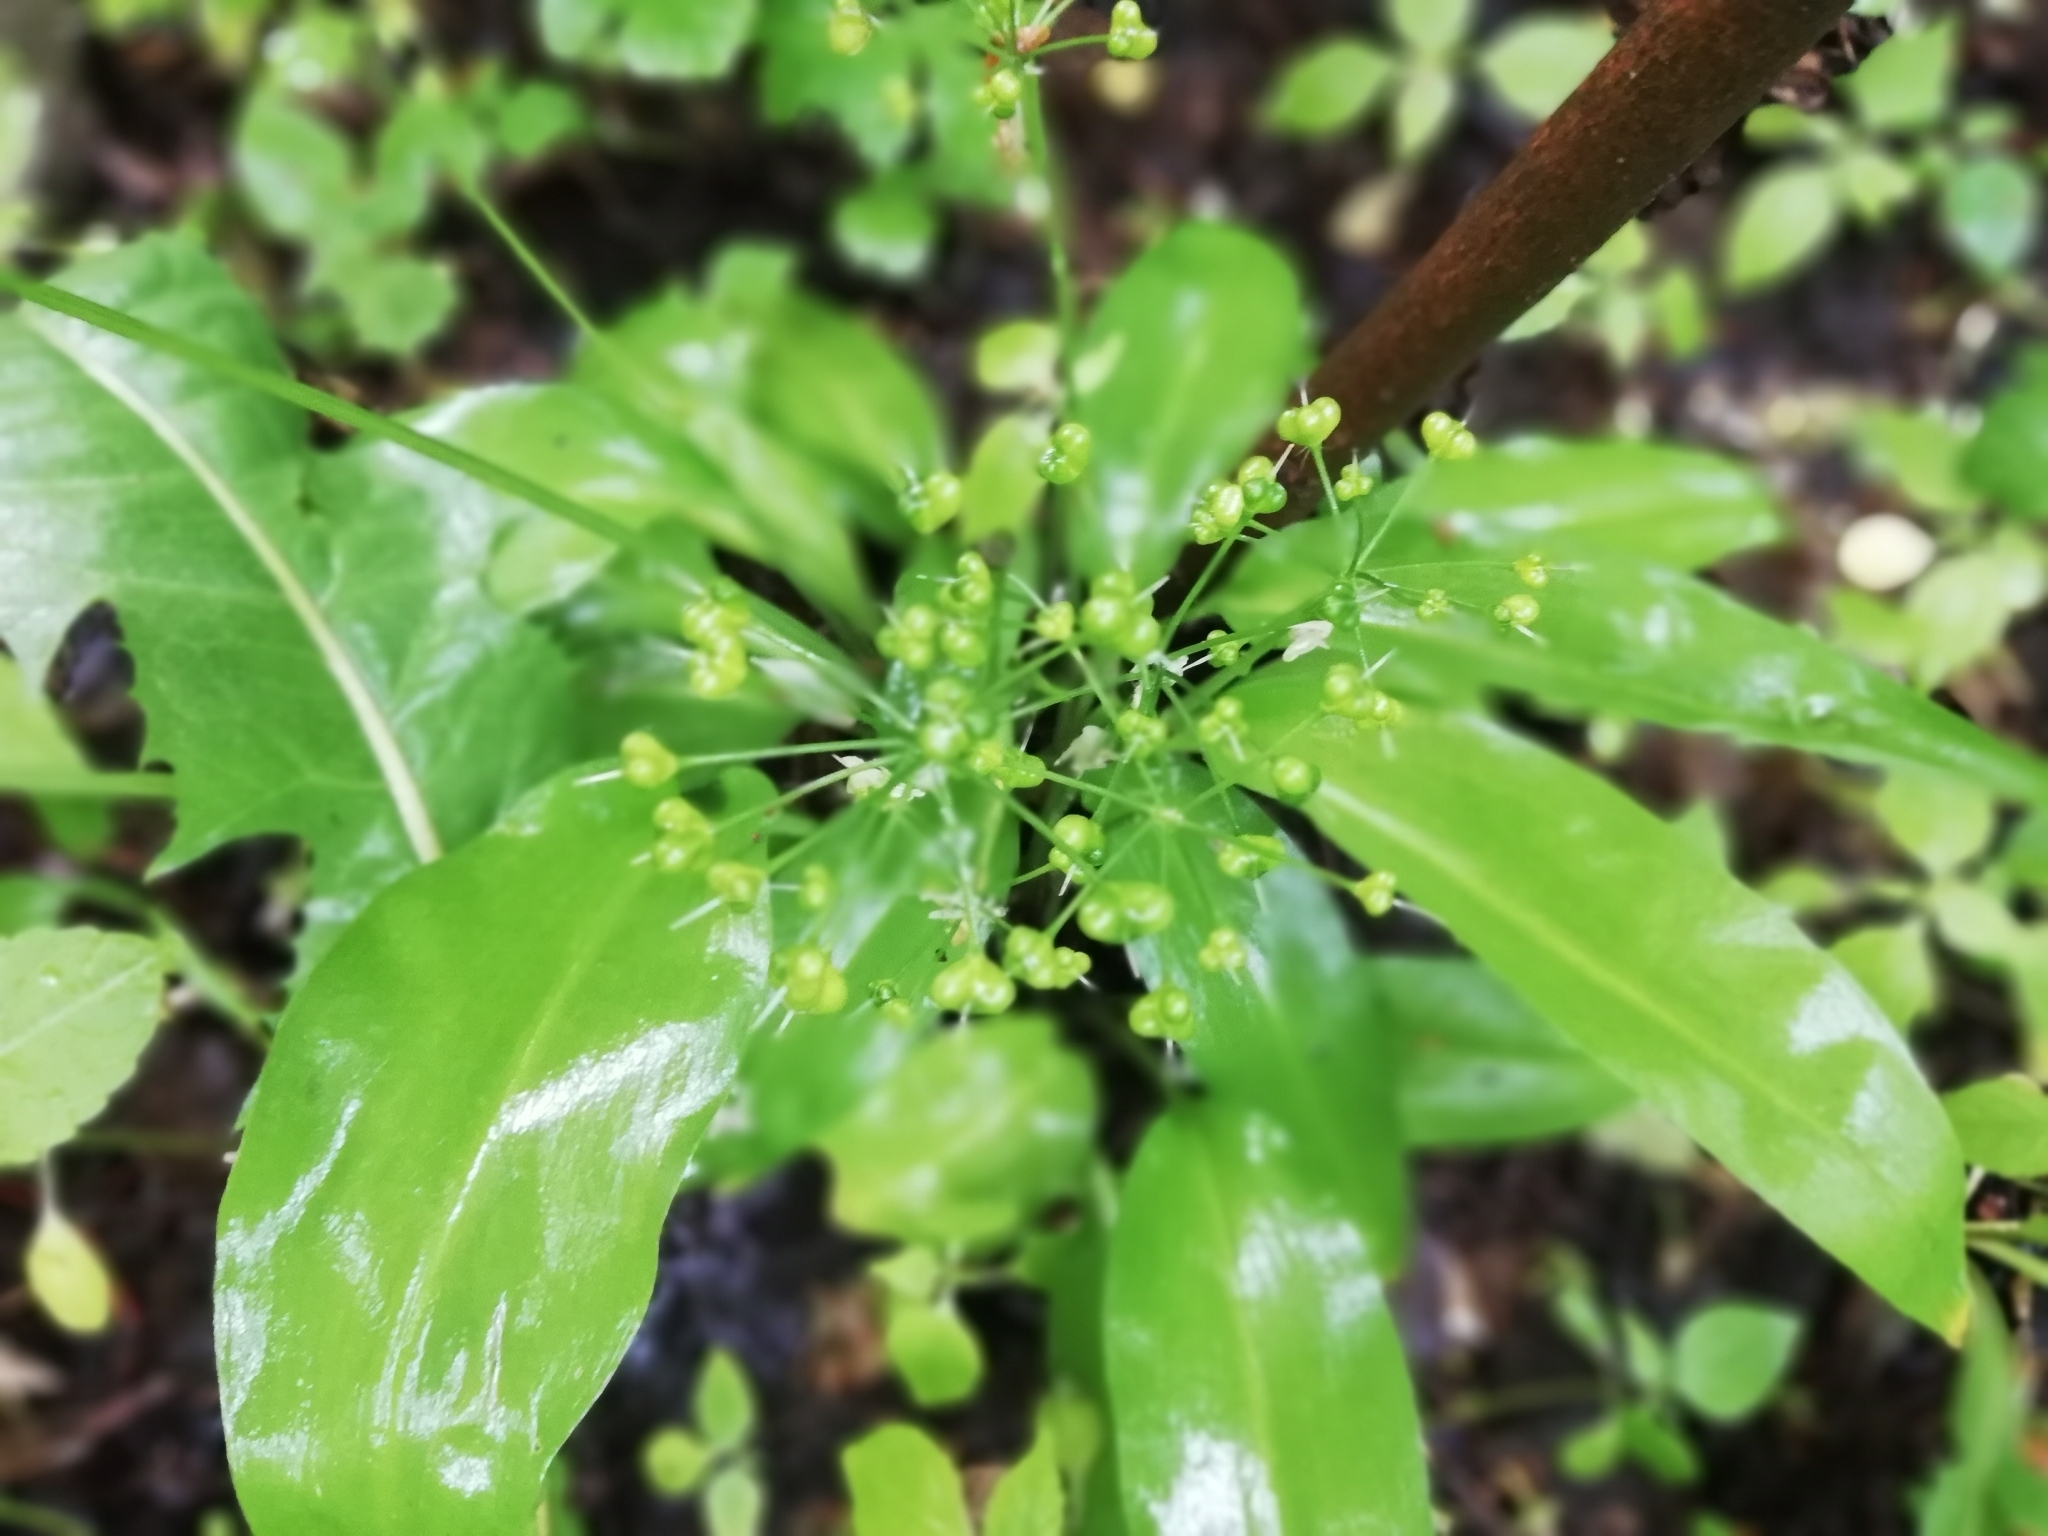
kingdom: Plantae
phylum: Tracheophyta
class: Liliopsida
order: Asparagales
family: Amaryllidaceae
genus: Allium
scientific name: Allium ursinum
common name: Ramsons
